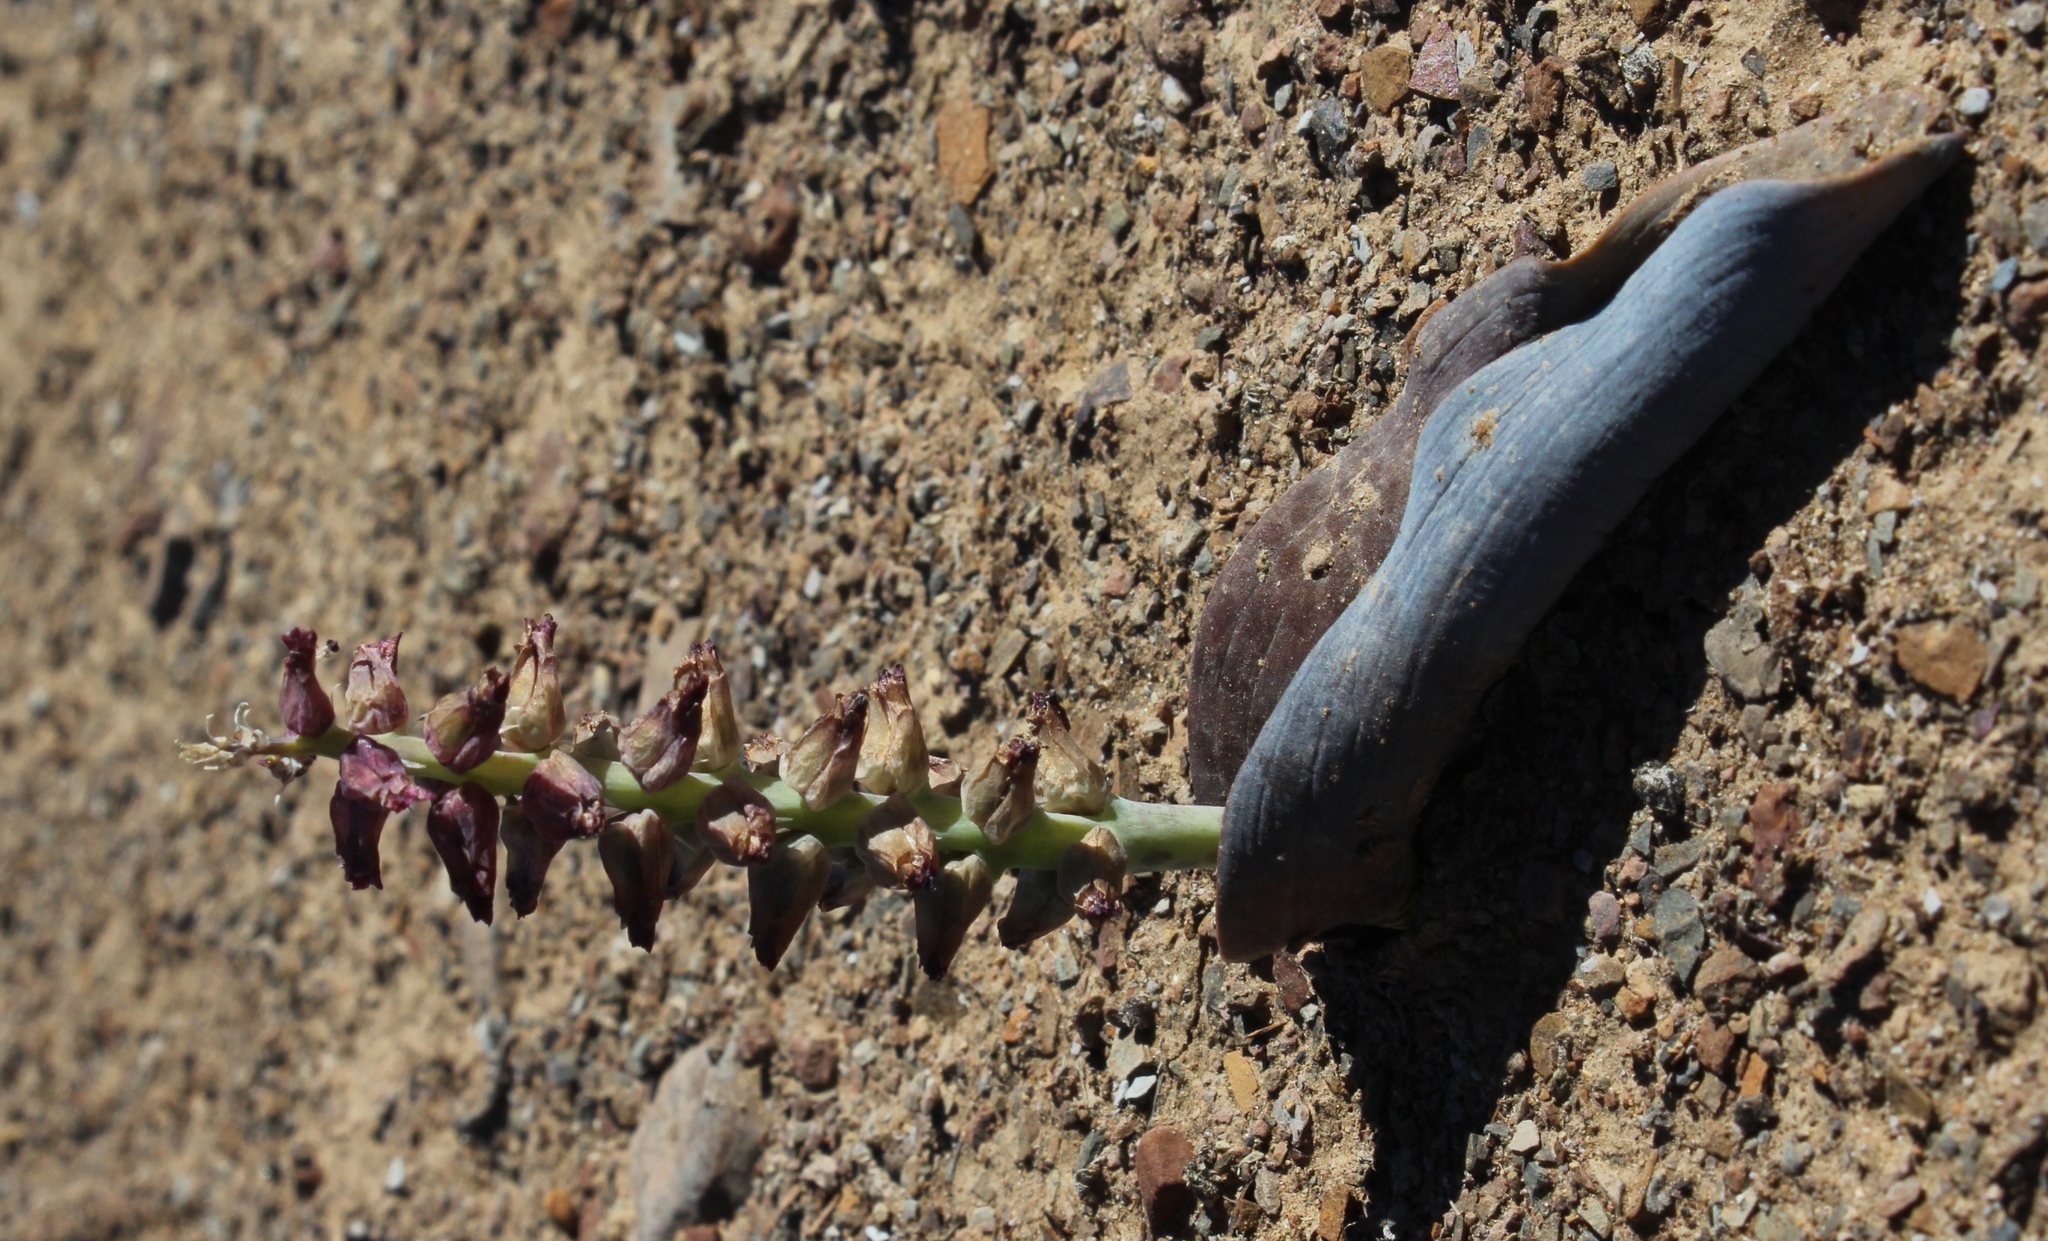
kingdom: Plantae
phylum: Tracheophyta
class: Liliopsida
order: Asparagales
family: Asparagaceae
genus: Lachenalia
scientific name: Lachenalia aurioliae
